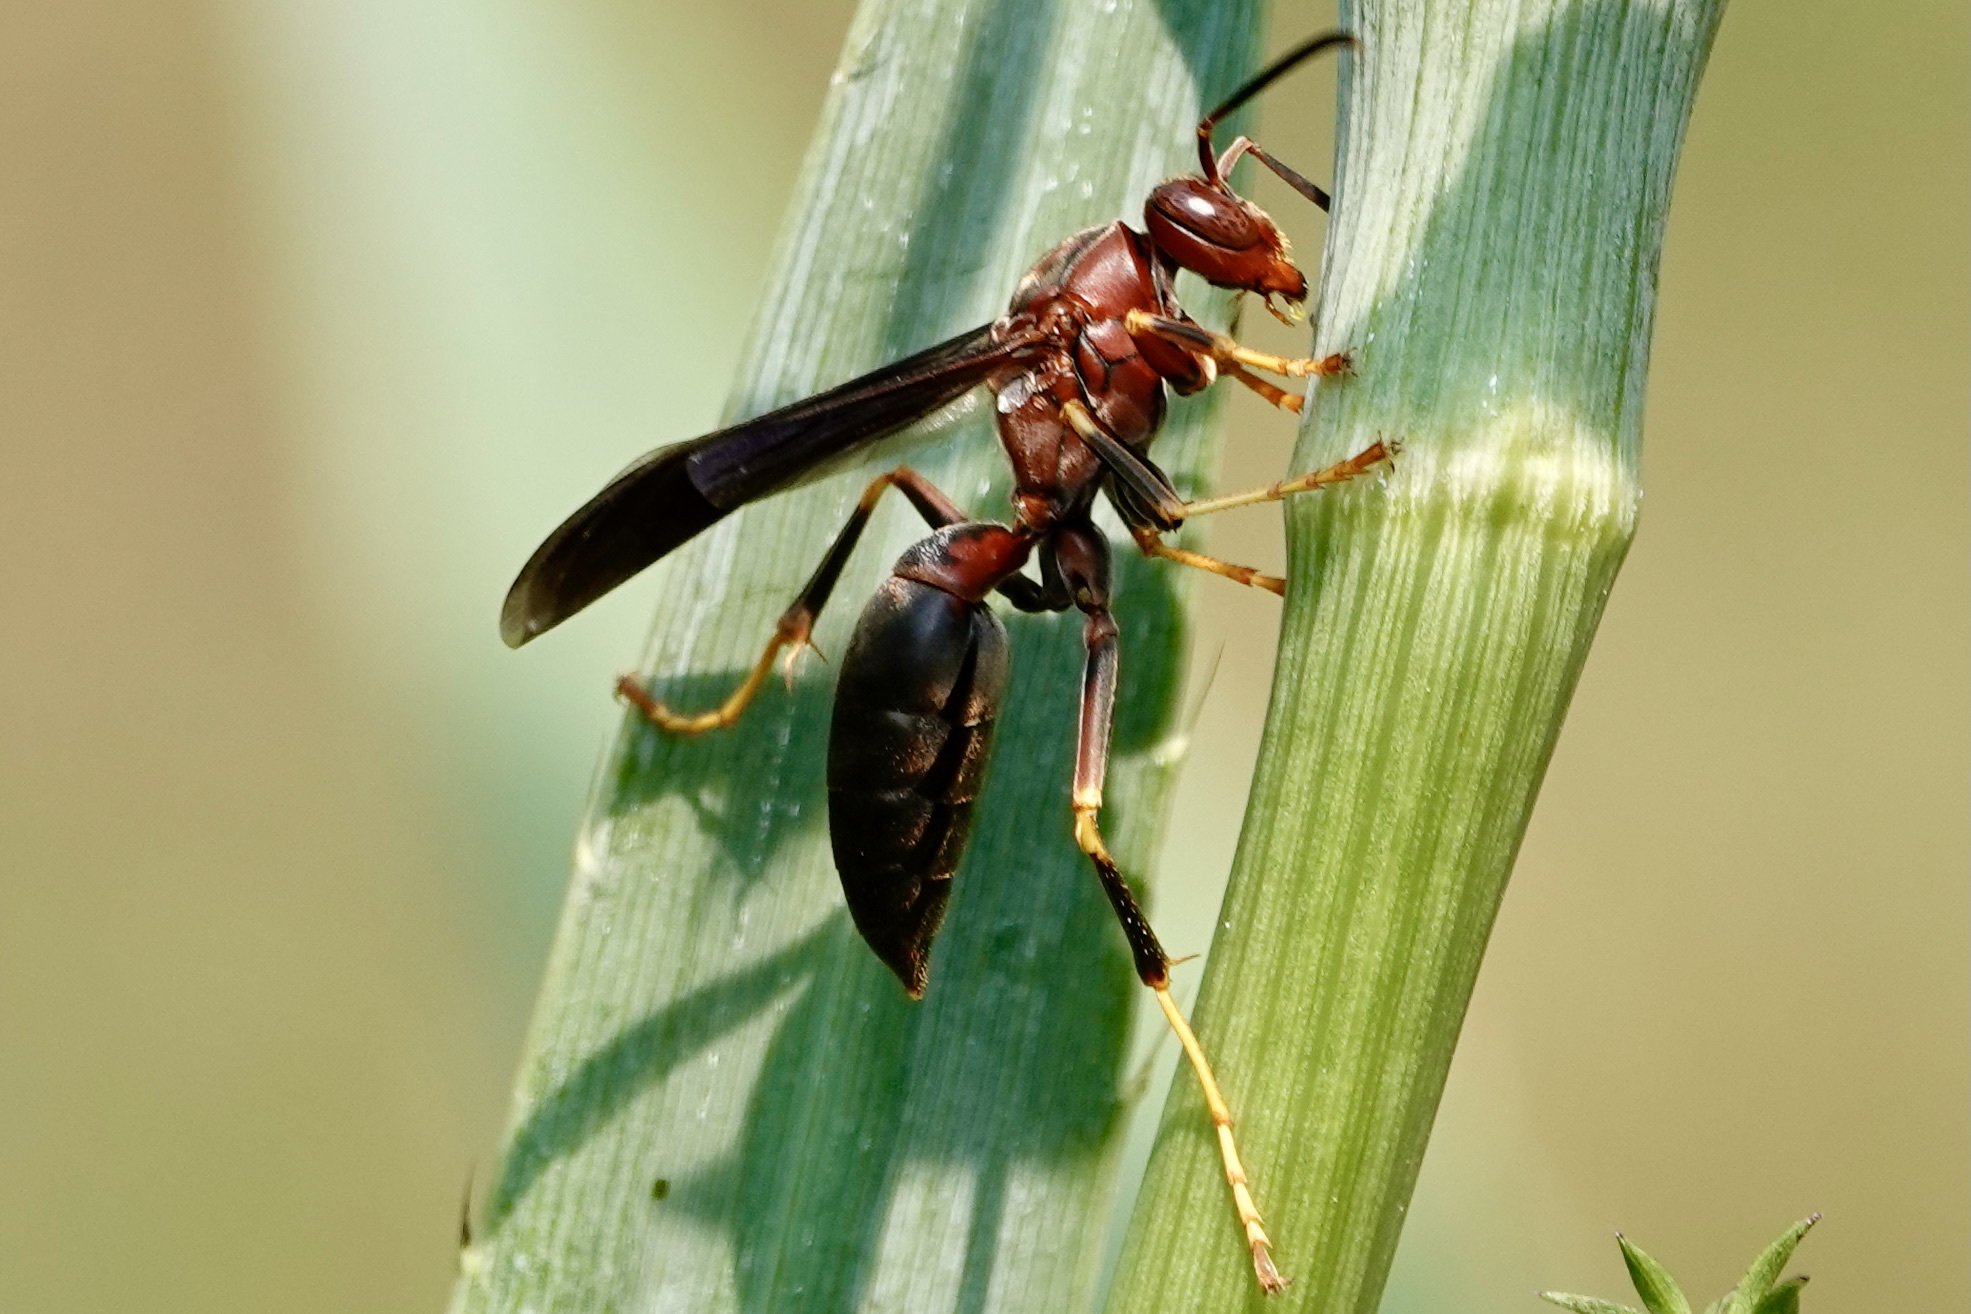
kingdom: Animalia
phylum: Arthropoda
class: Insecta
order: Hymenoptera
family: Eumenidae
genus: Polistes
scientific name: Polistes metricus
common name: Metric paper wasp
